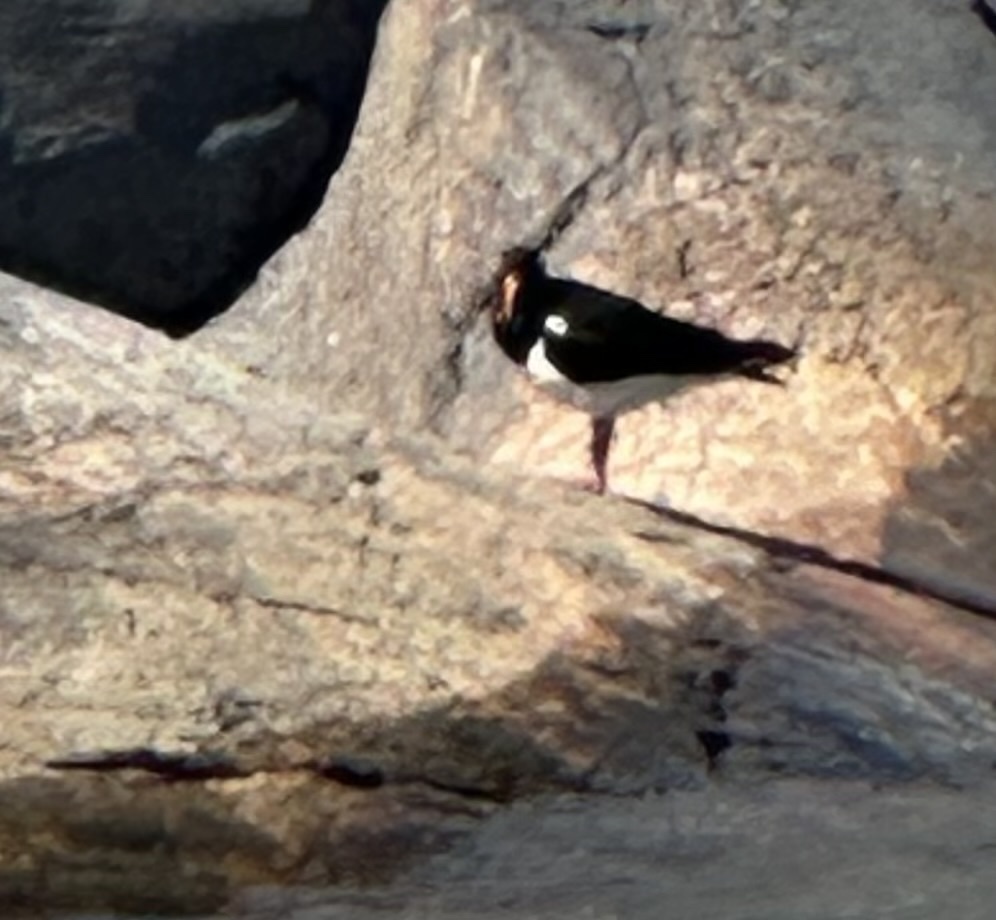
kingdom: Animalia
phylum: Chordata
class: Aves
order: Charadriiformes
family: Haematopodidae
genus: Haematopus
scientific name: Haematopus ostralegus
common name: Eurasian oystercatcher
